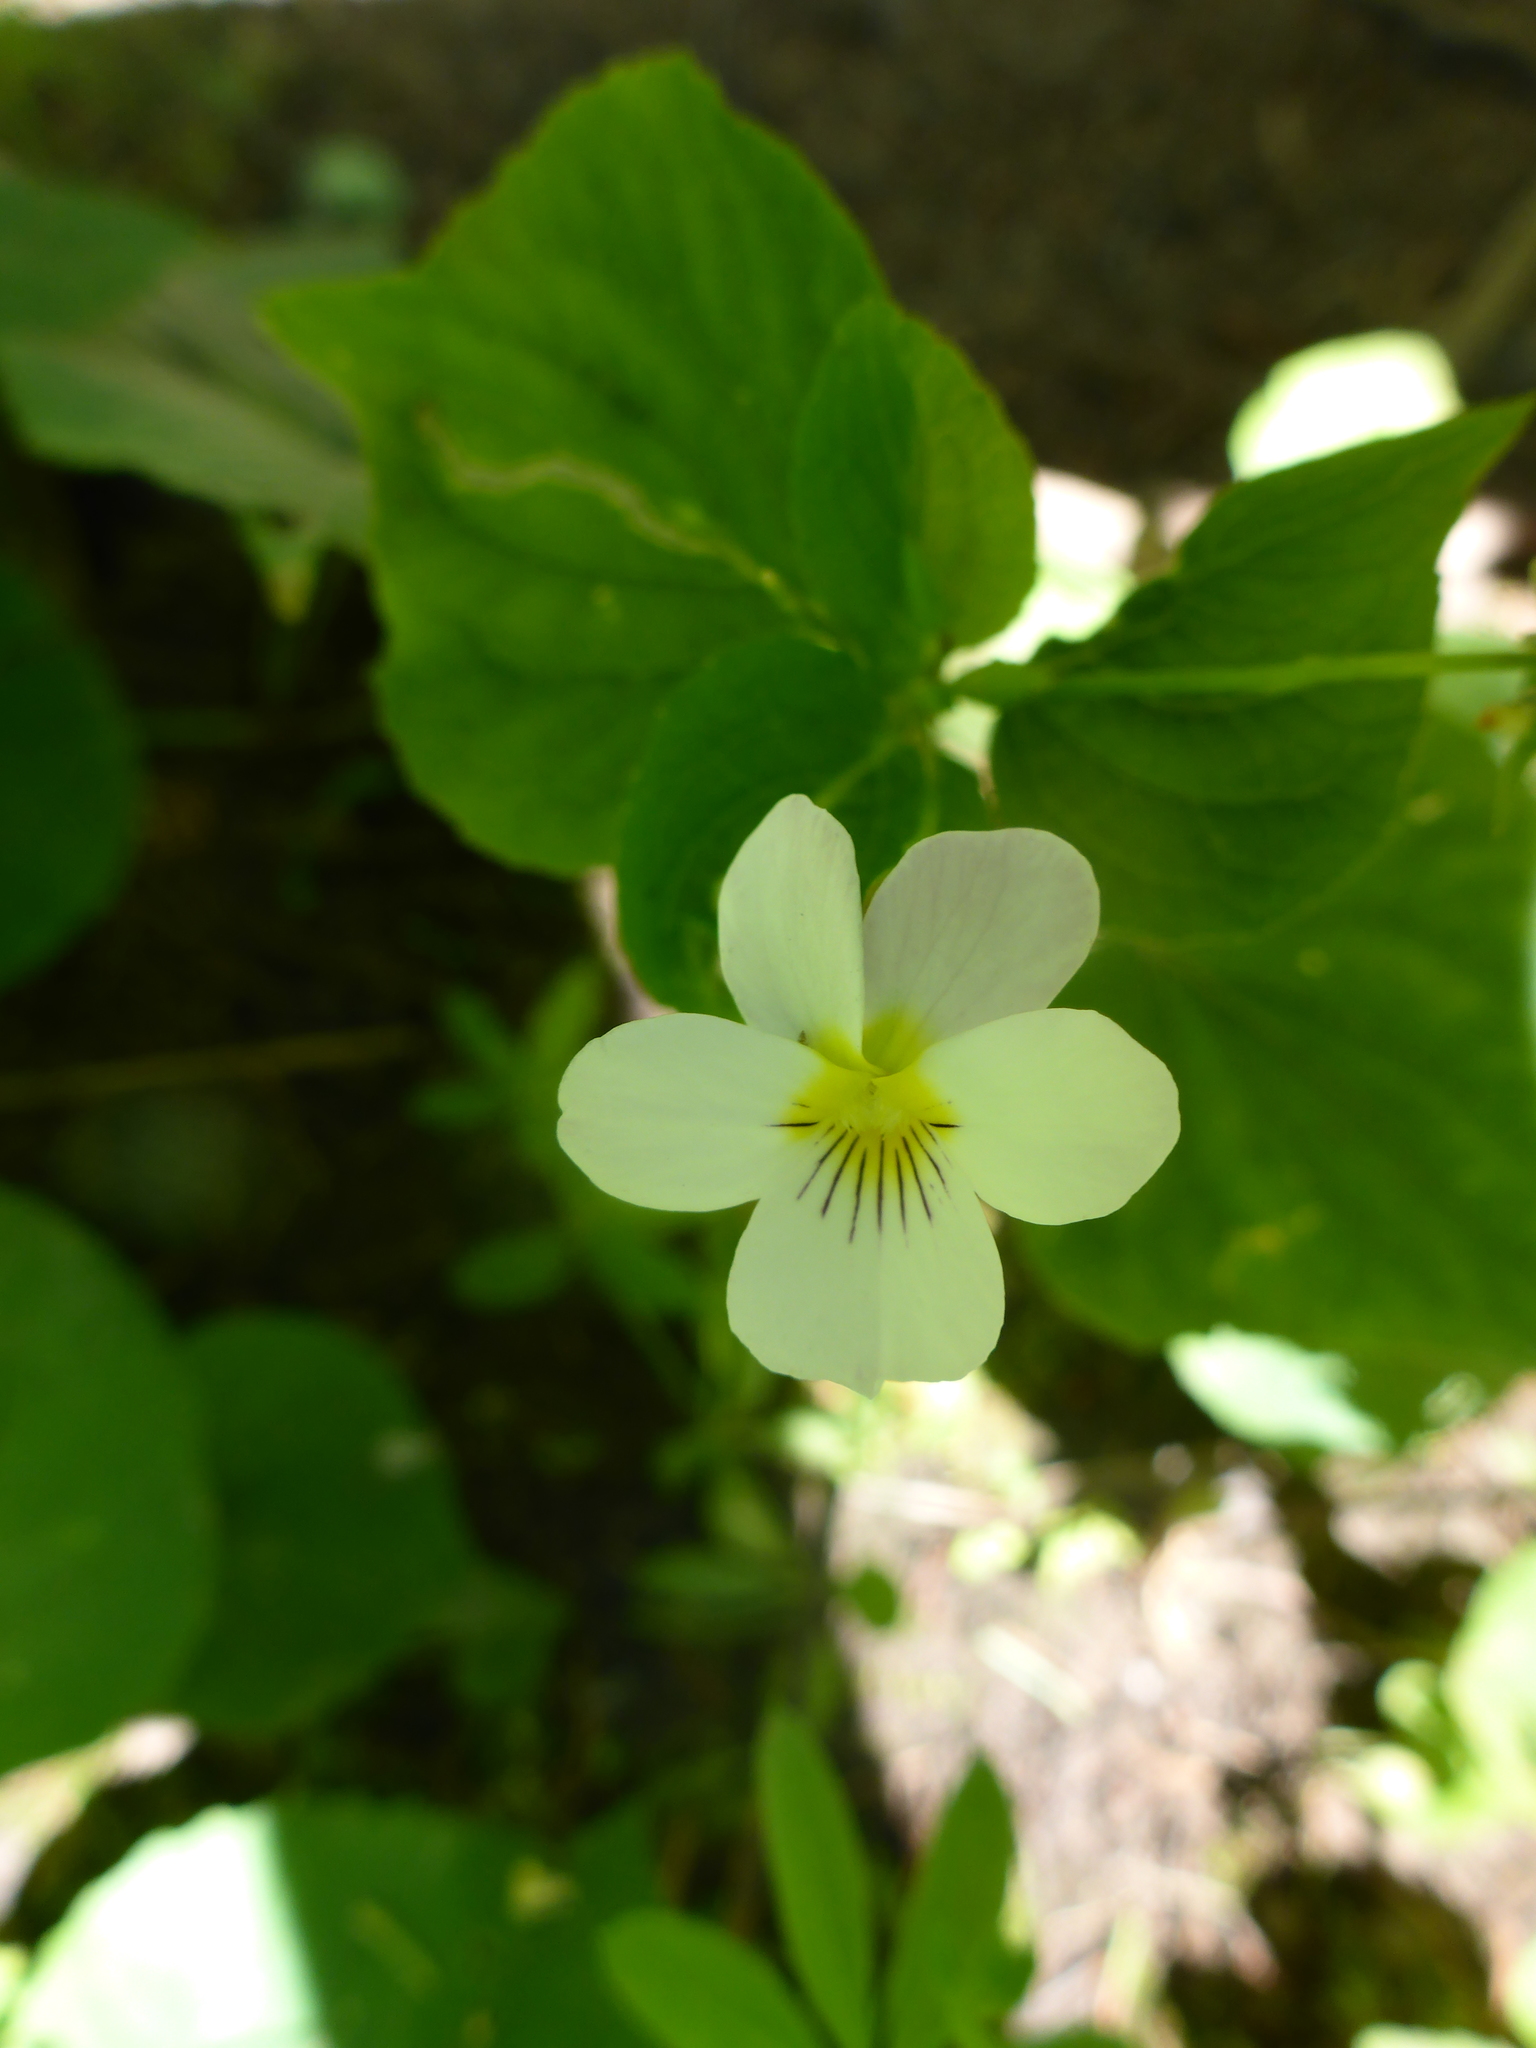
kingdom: Plantae
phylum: Tracheophyta
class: Magnoliopsida
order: Malpighiales
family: Violaceae
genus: Viola
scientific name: Viola canadensis
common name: Canada violet
